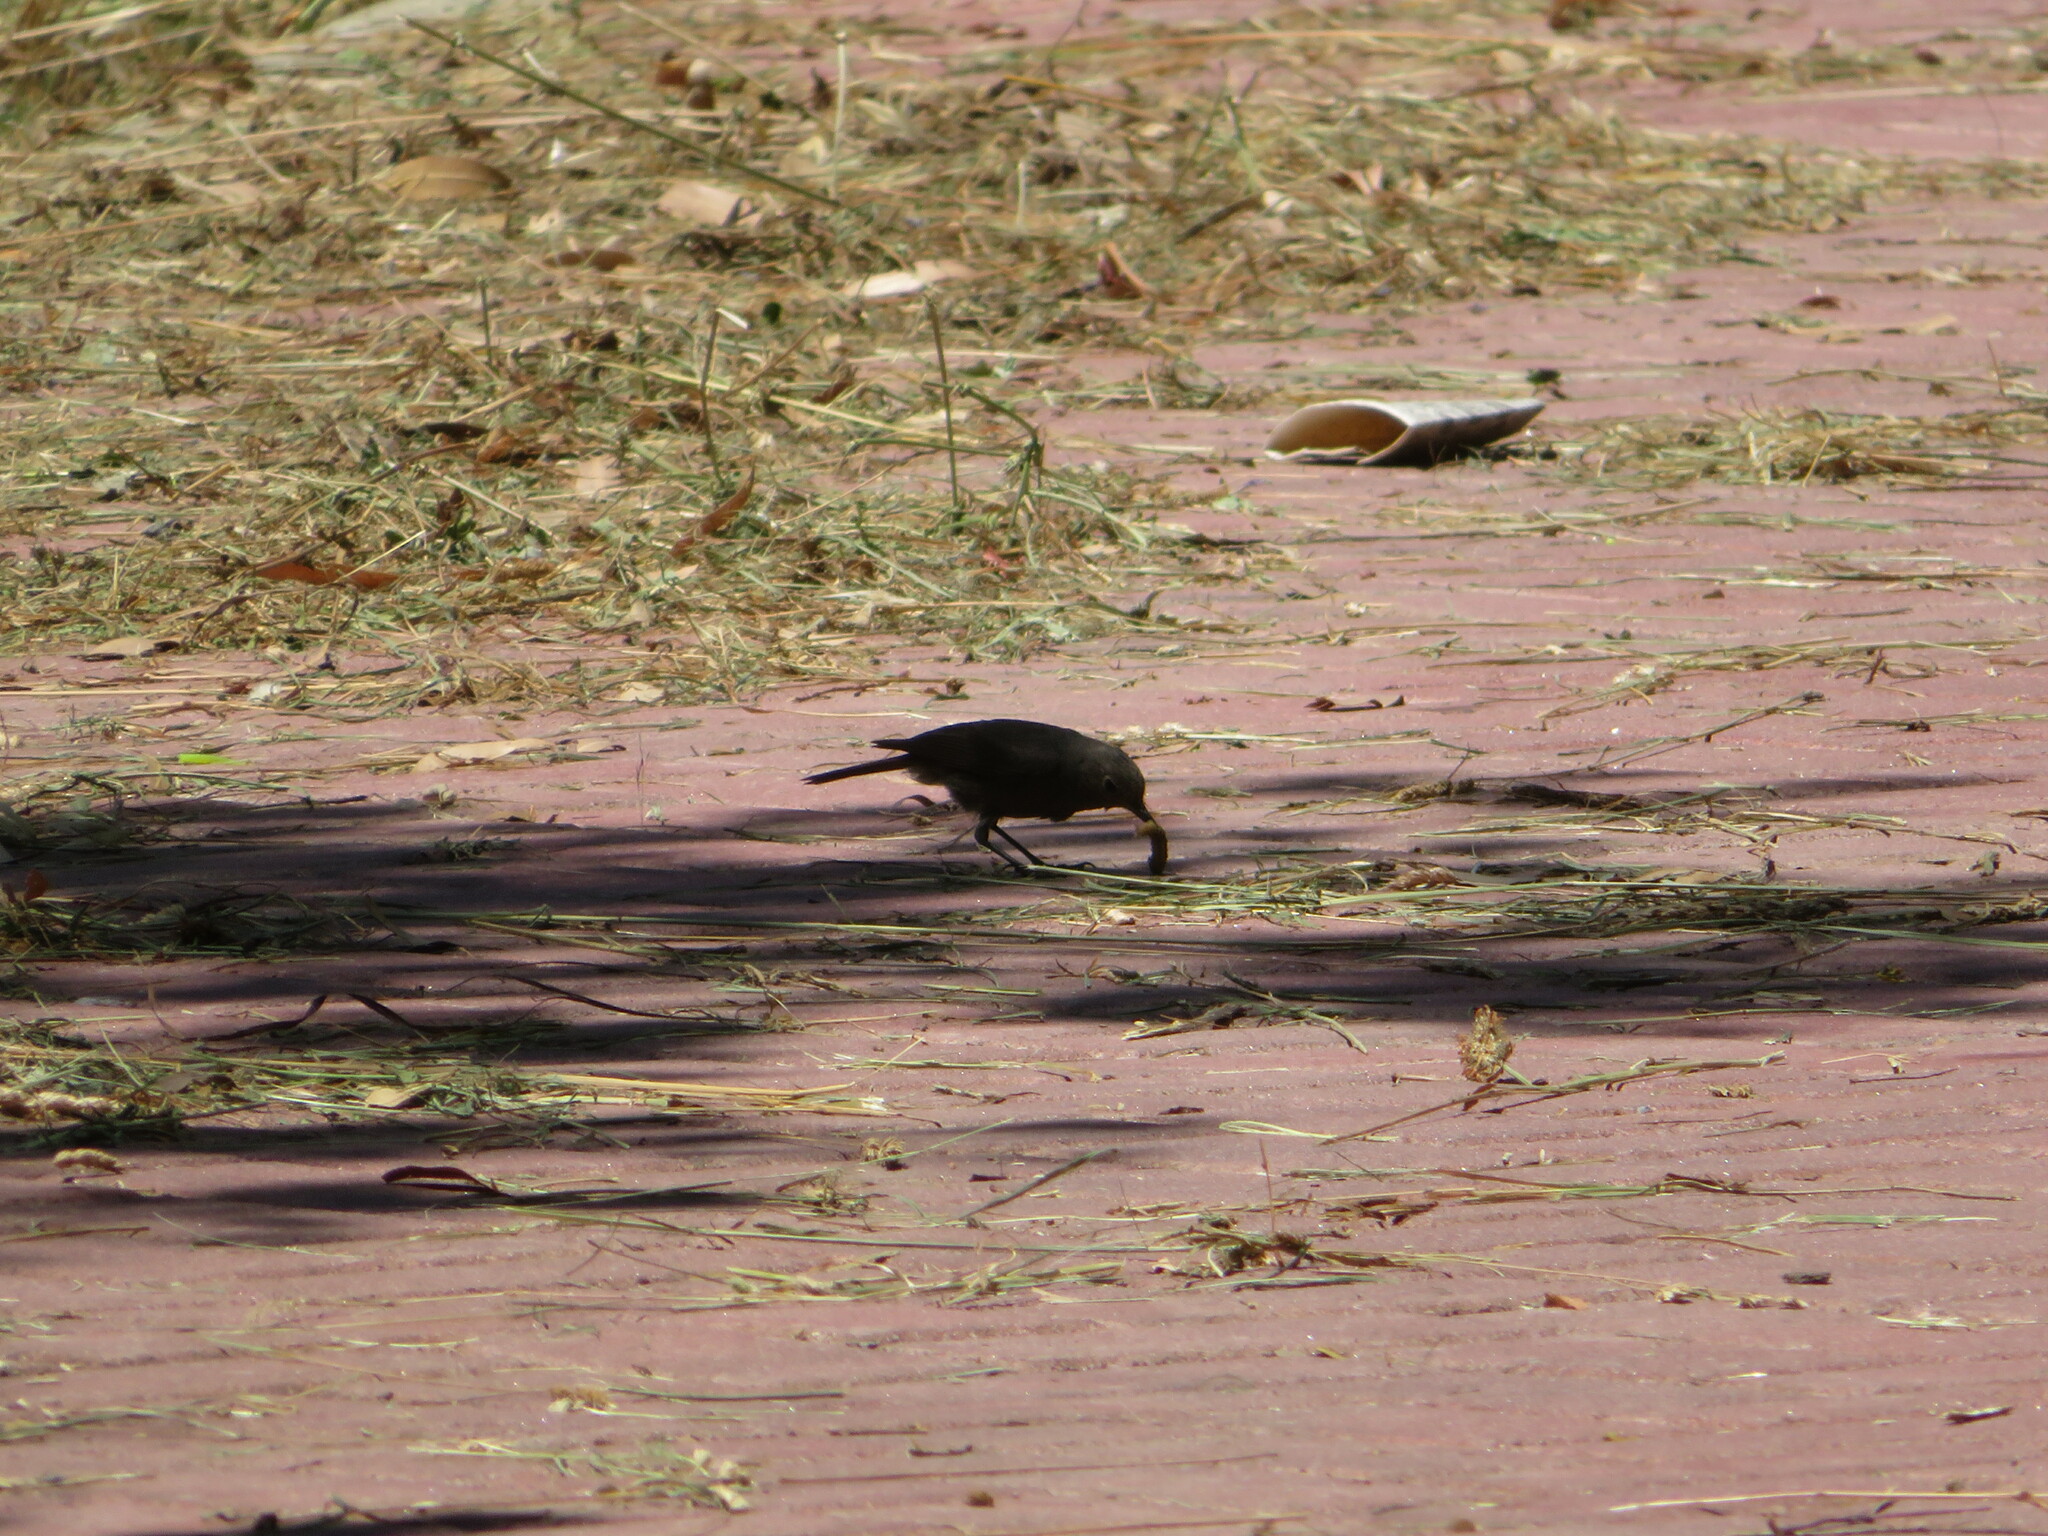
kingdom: Animalia
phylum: Chordata
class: Aves
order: Passeriformes
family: Muscicapidae
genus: Phoenicurus
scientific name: Phoenicurus ochruros
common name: Black redstart
